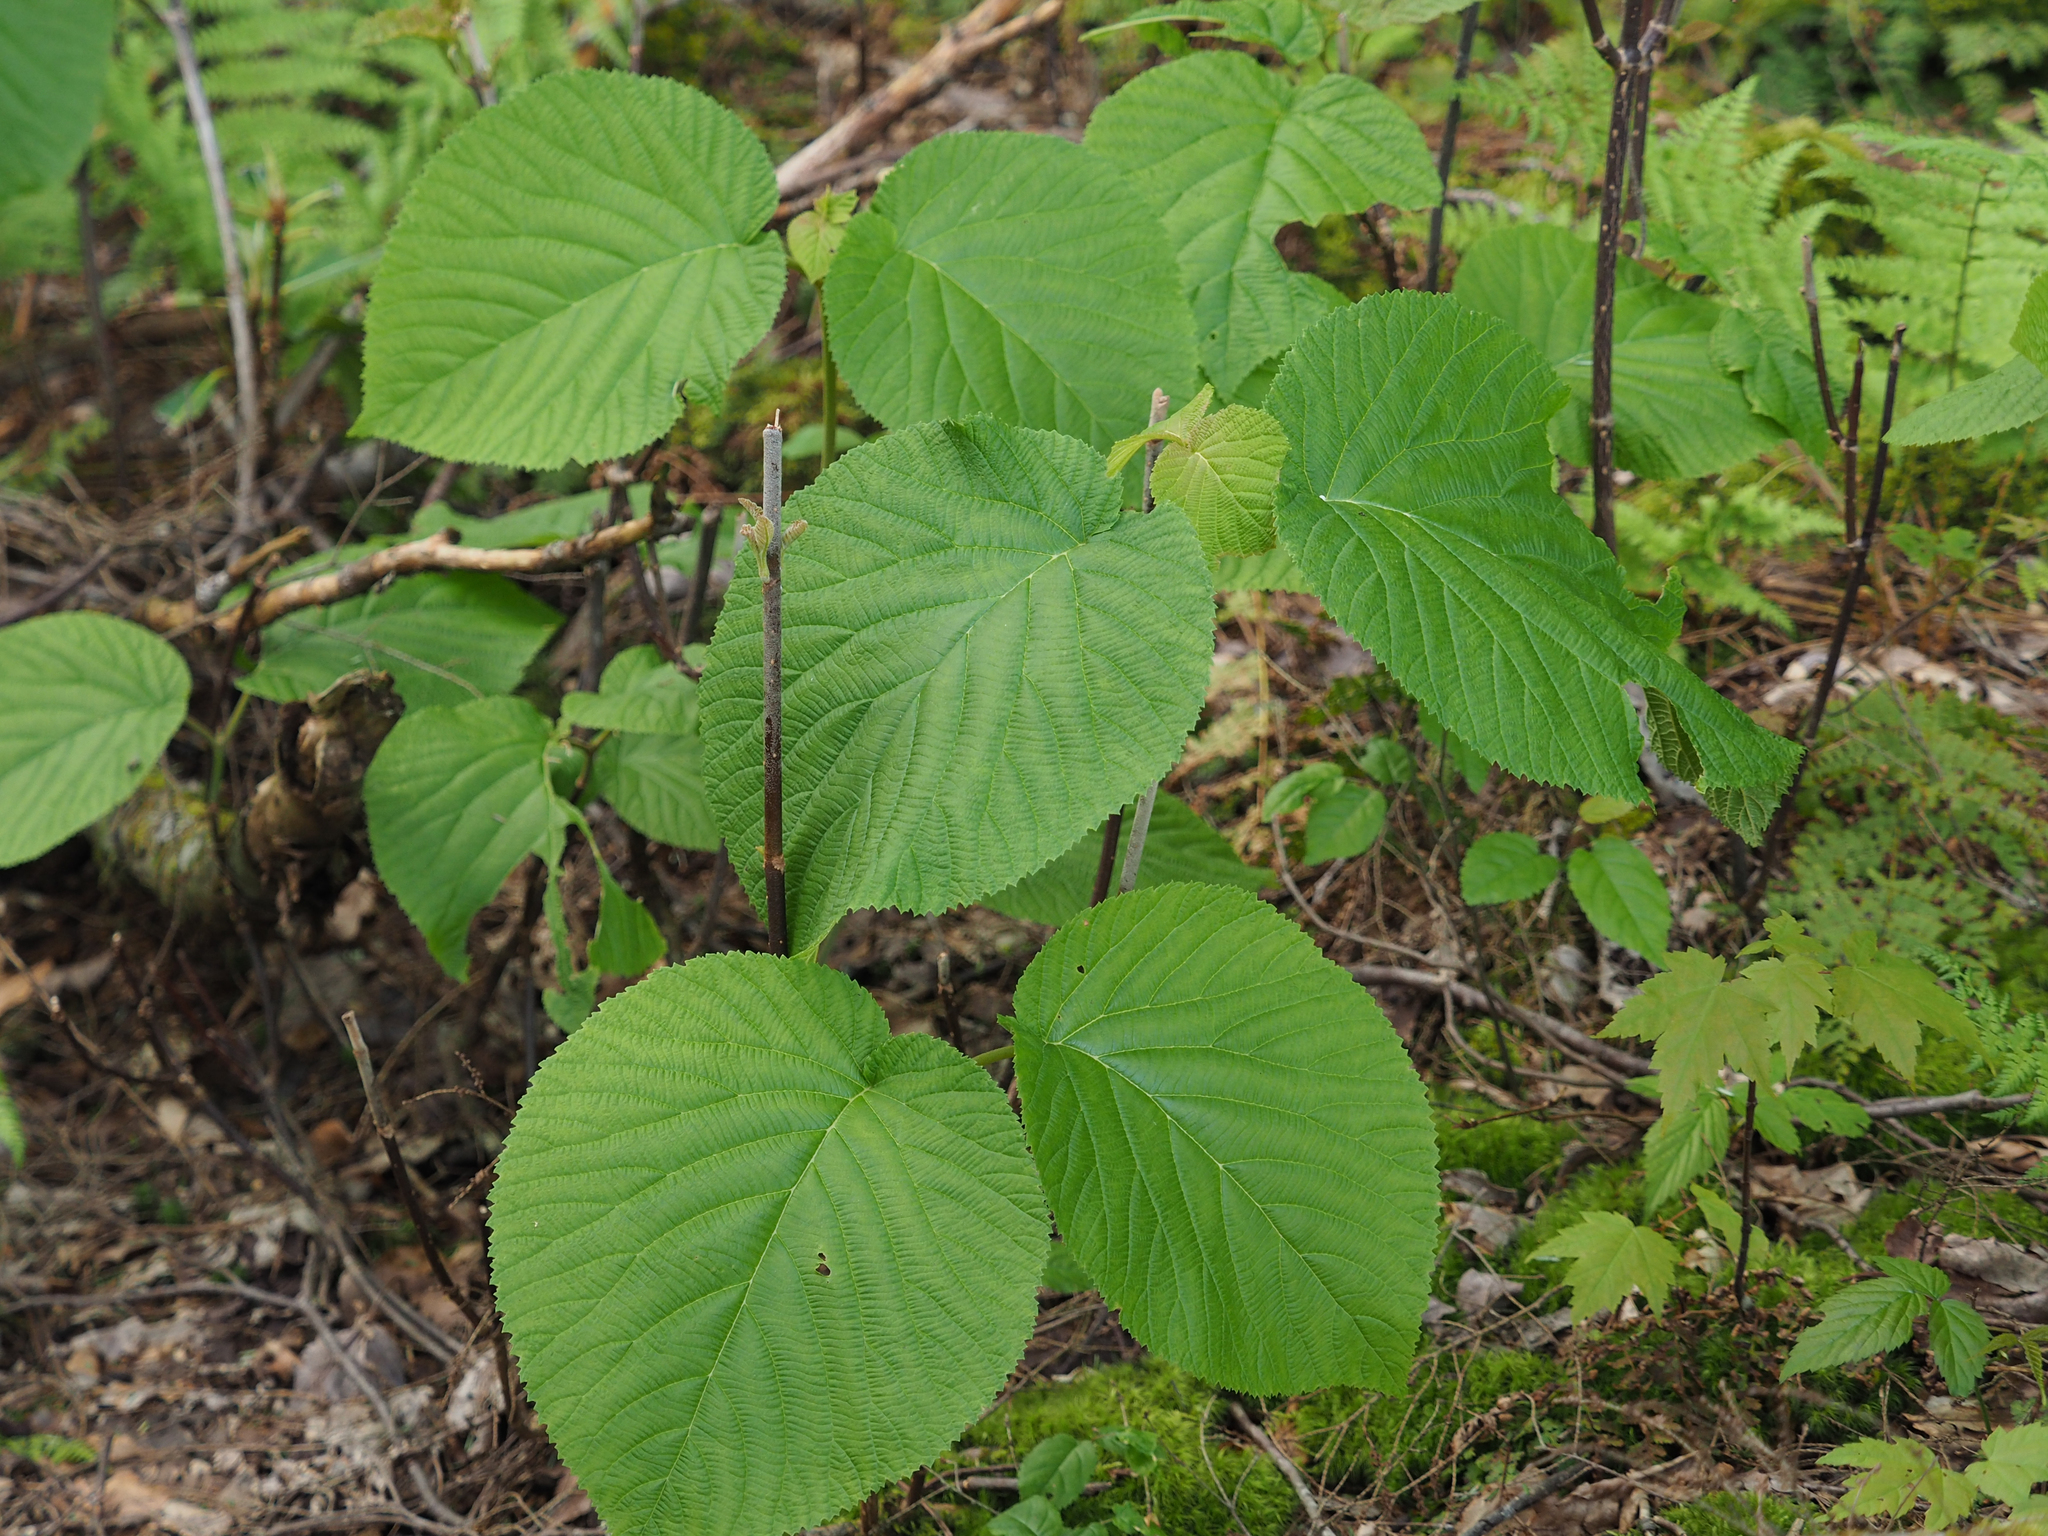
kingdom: Plantae
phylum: Tracheophyta
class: Magnoliopsida
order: Dipsacales
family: Viburnaceae
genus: Viburnum
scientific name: Viburnum lantanoides
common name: Hobblebush
